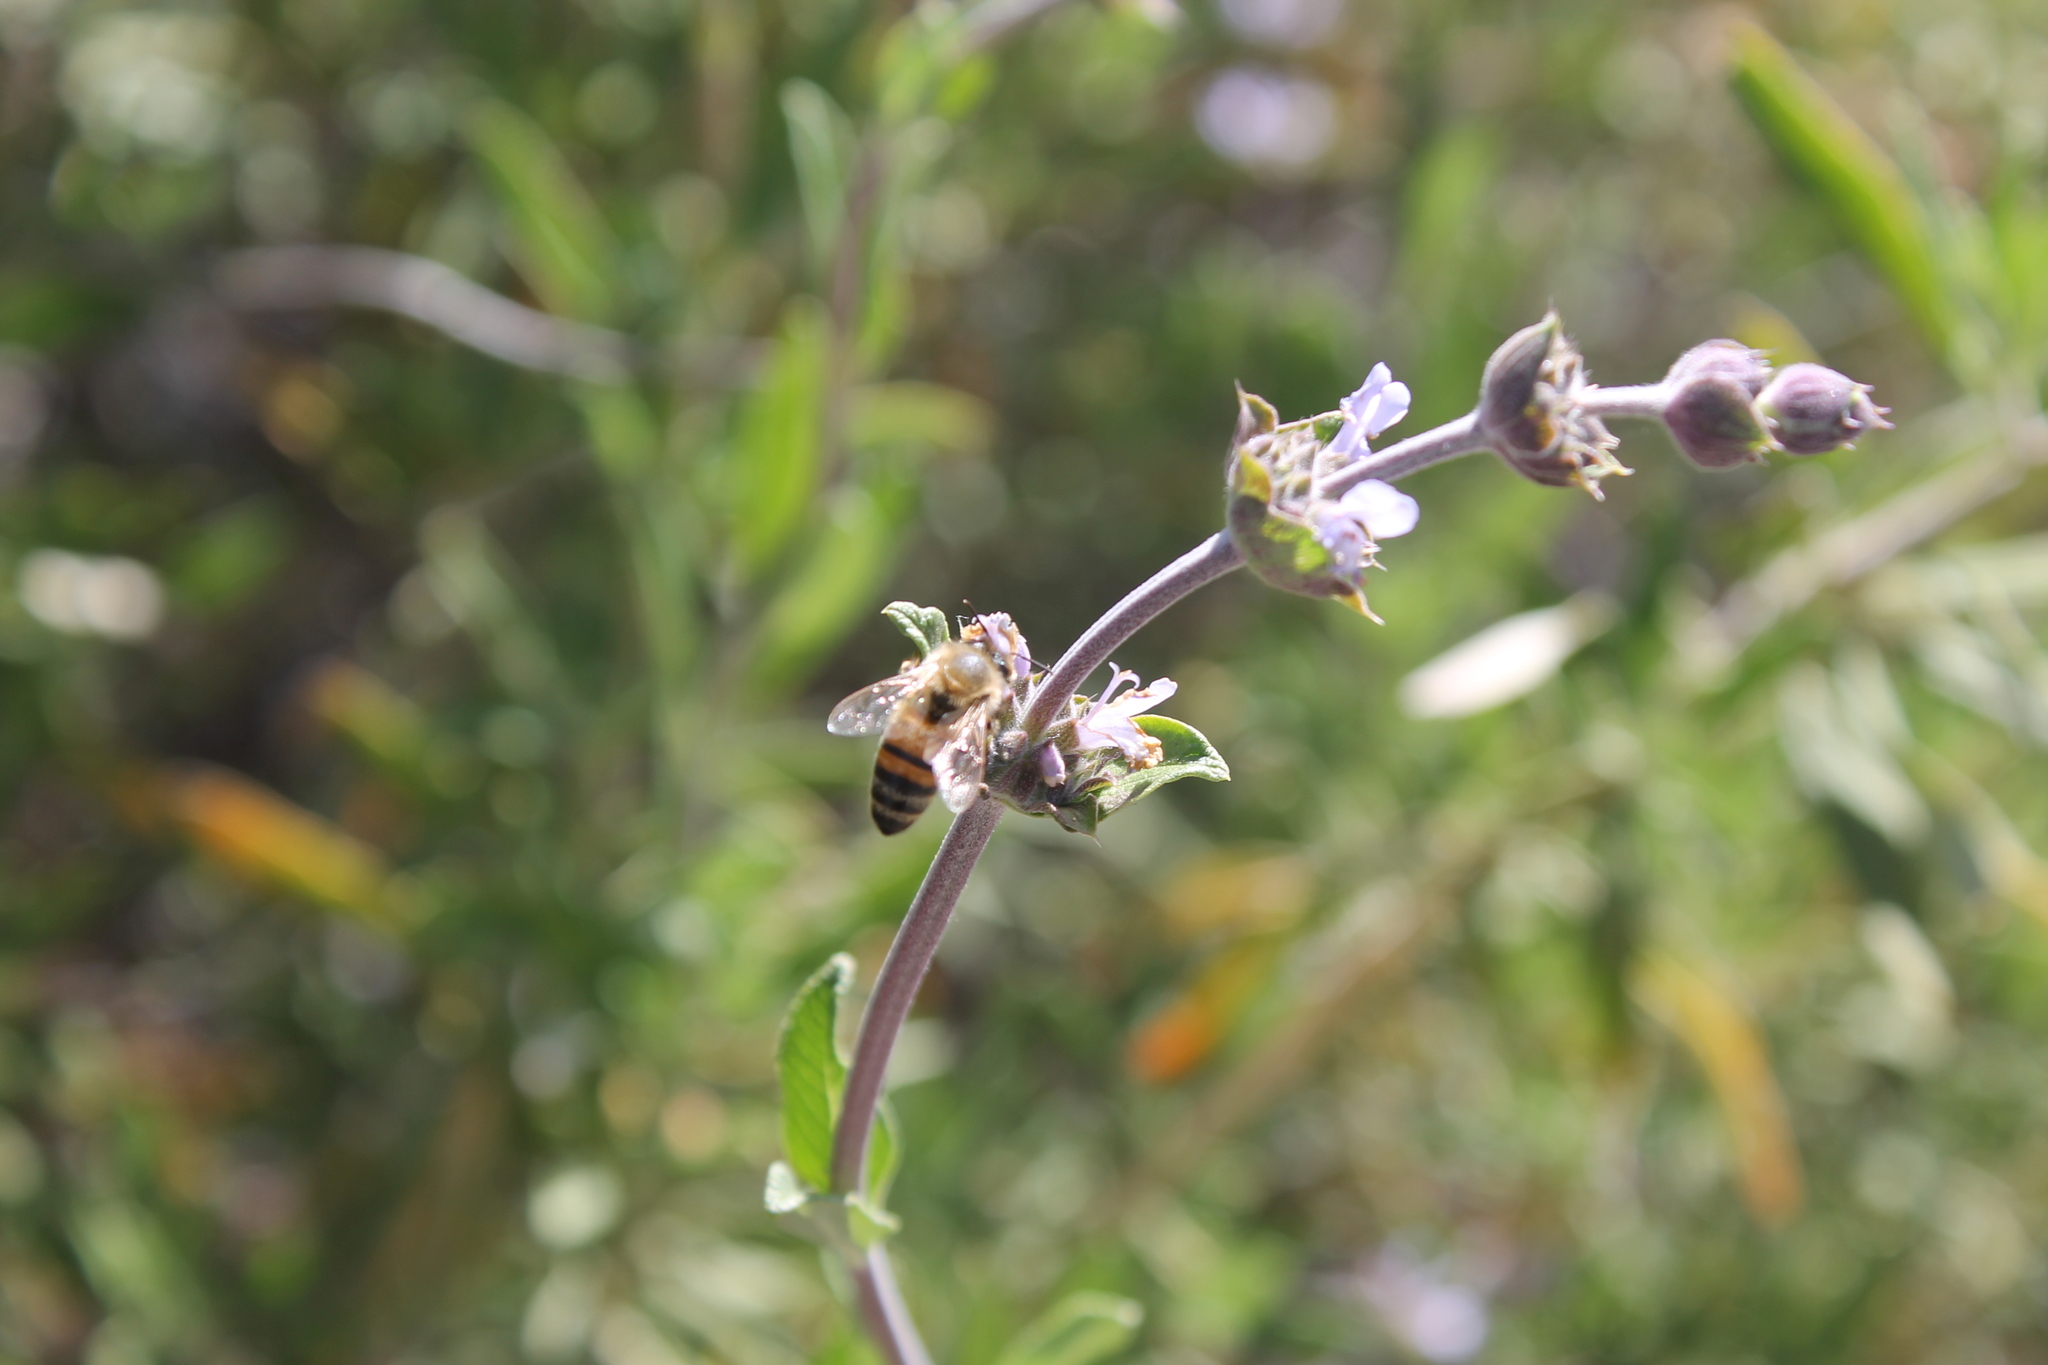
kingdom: Animalia
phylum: Arthropoda
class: Insecta
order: Hymenoptera
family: Apidae
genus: Apis
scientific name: Apis mellifera
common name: Honey bee
